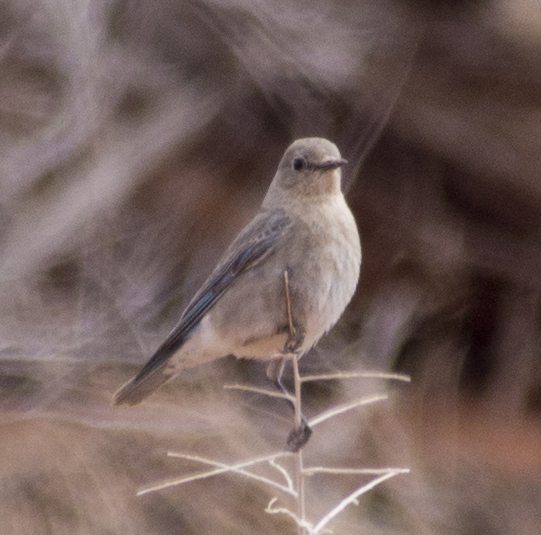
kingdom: Animalia
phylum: Chordata
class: Aves
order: Passeriformes
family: Turdidae
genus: Sialia
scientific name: Sialia currucoides
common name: Mountain bluebird
